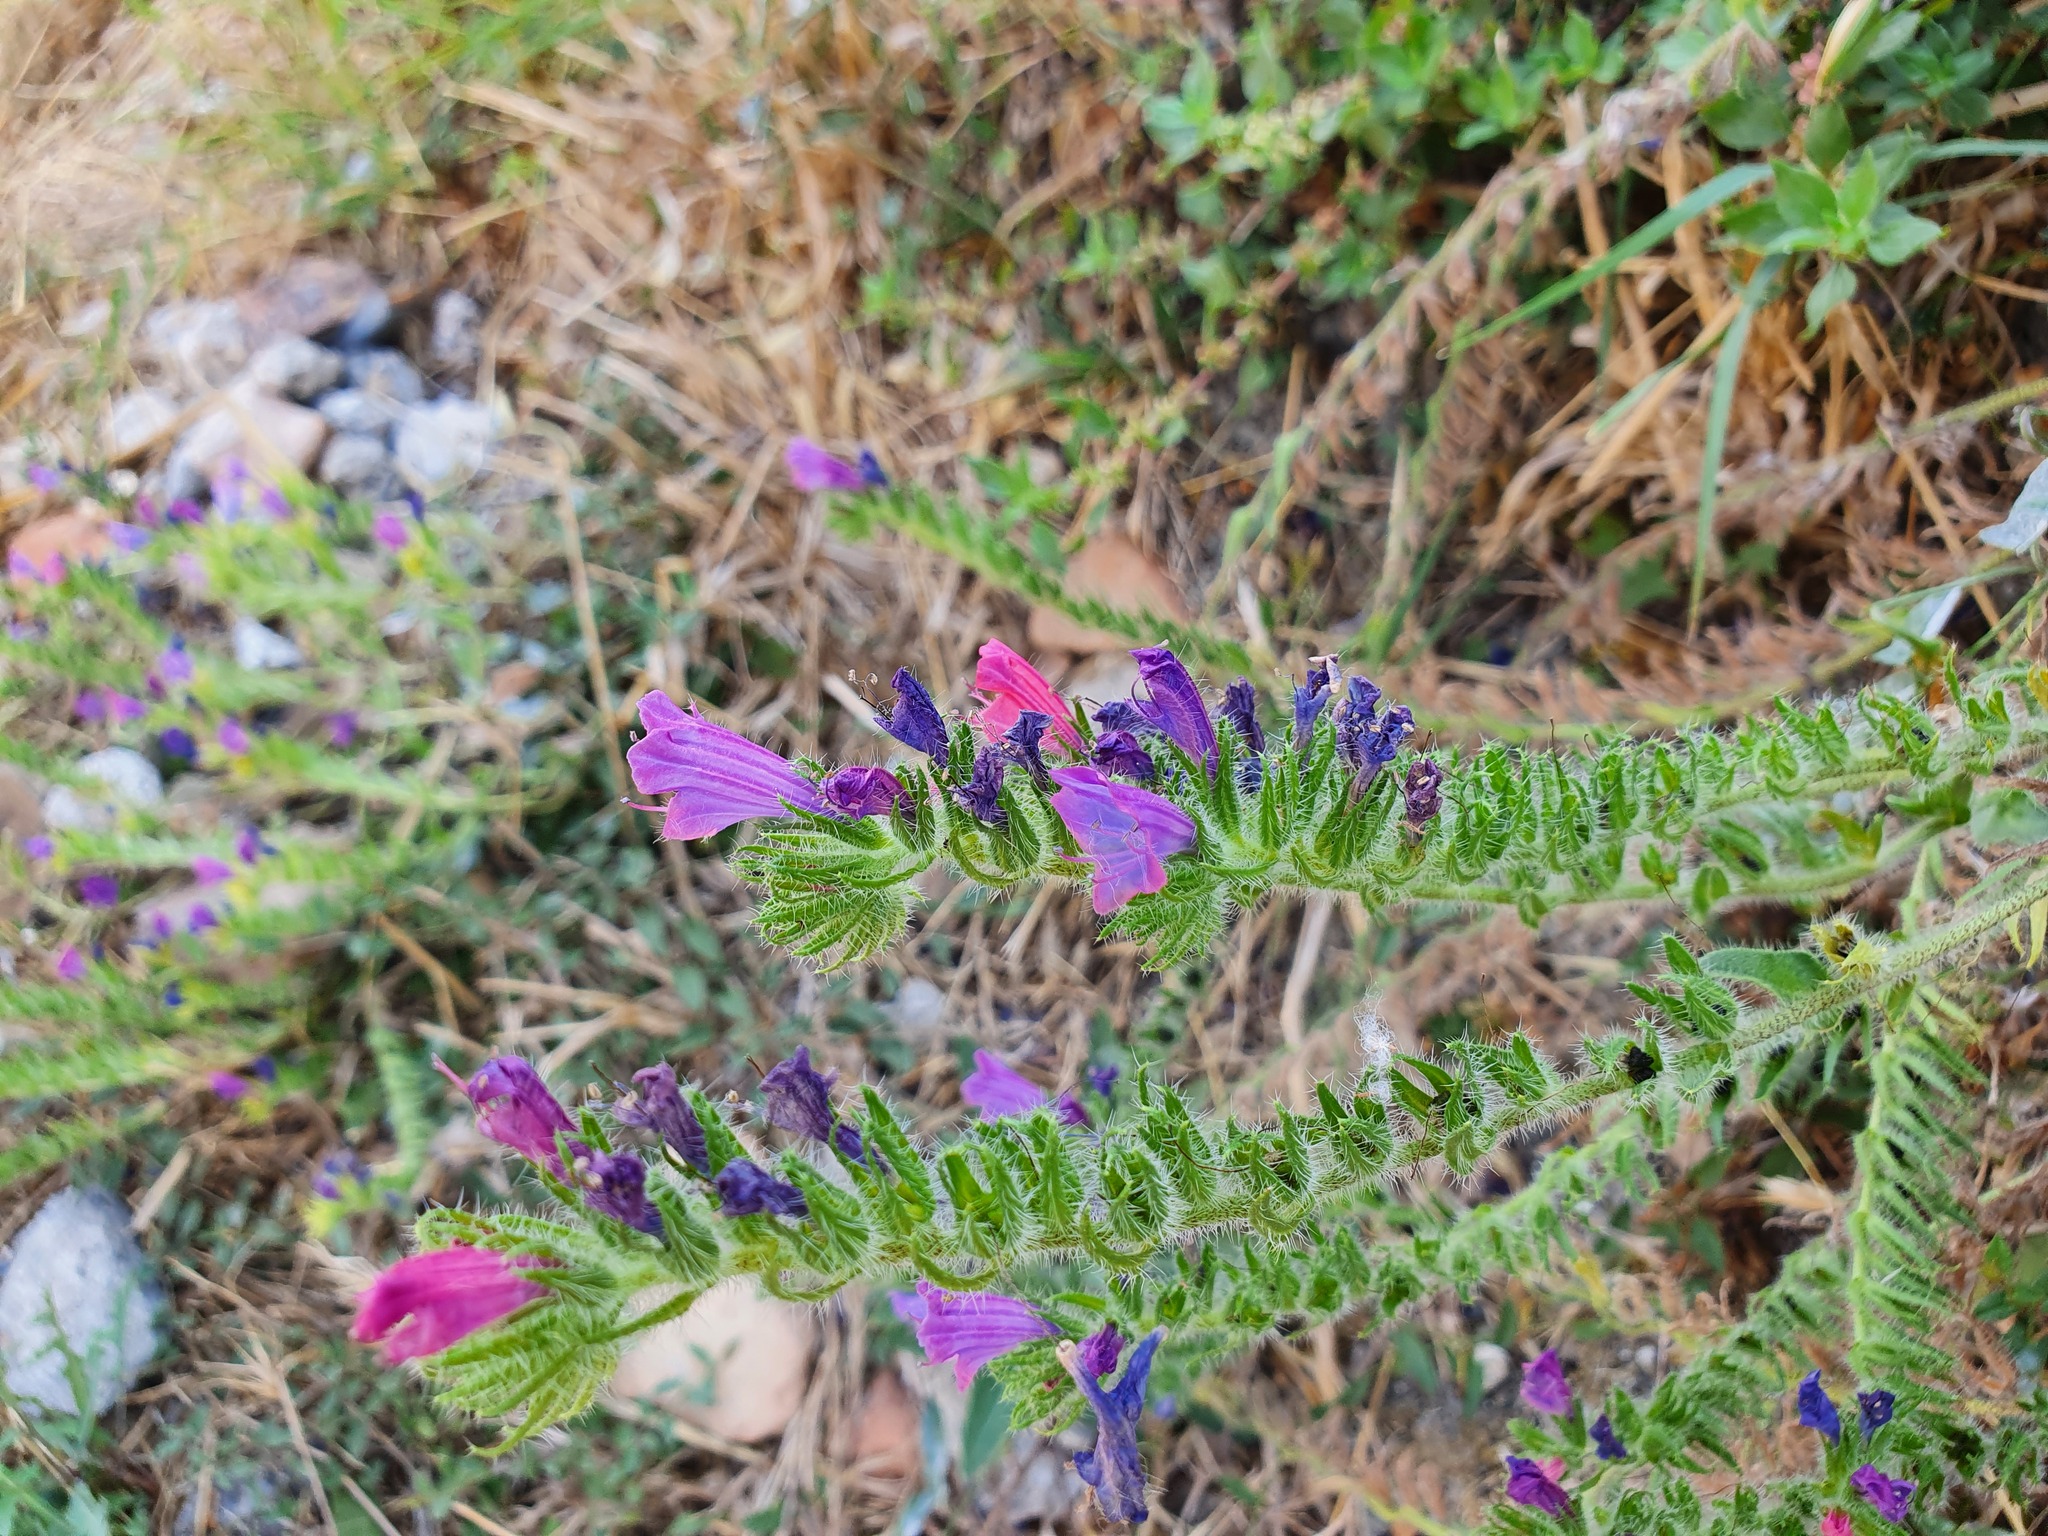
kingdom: Plantae
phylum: Tracheophyta
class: Magnoliopsida
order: Boraginales
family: Boraginaceae
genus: Echium
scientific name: Echium plantagineum
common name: Purple viper's-bugloss
